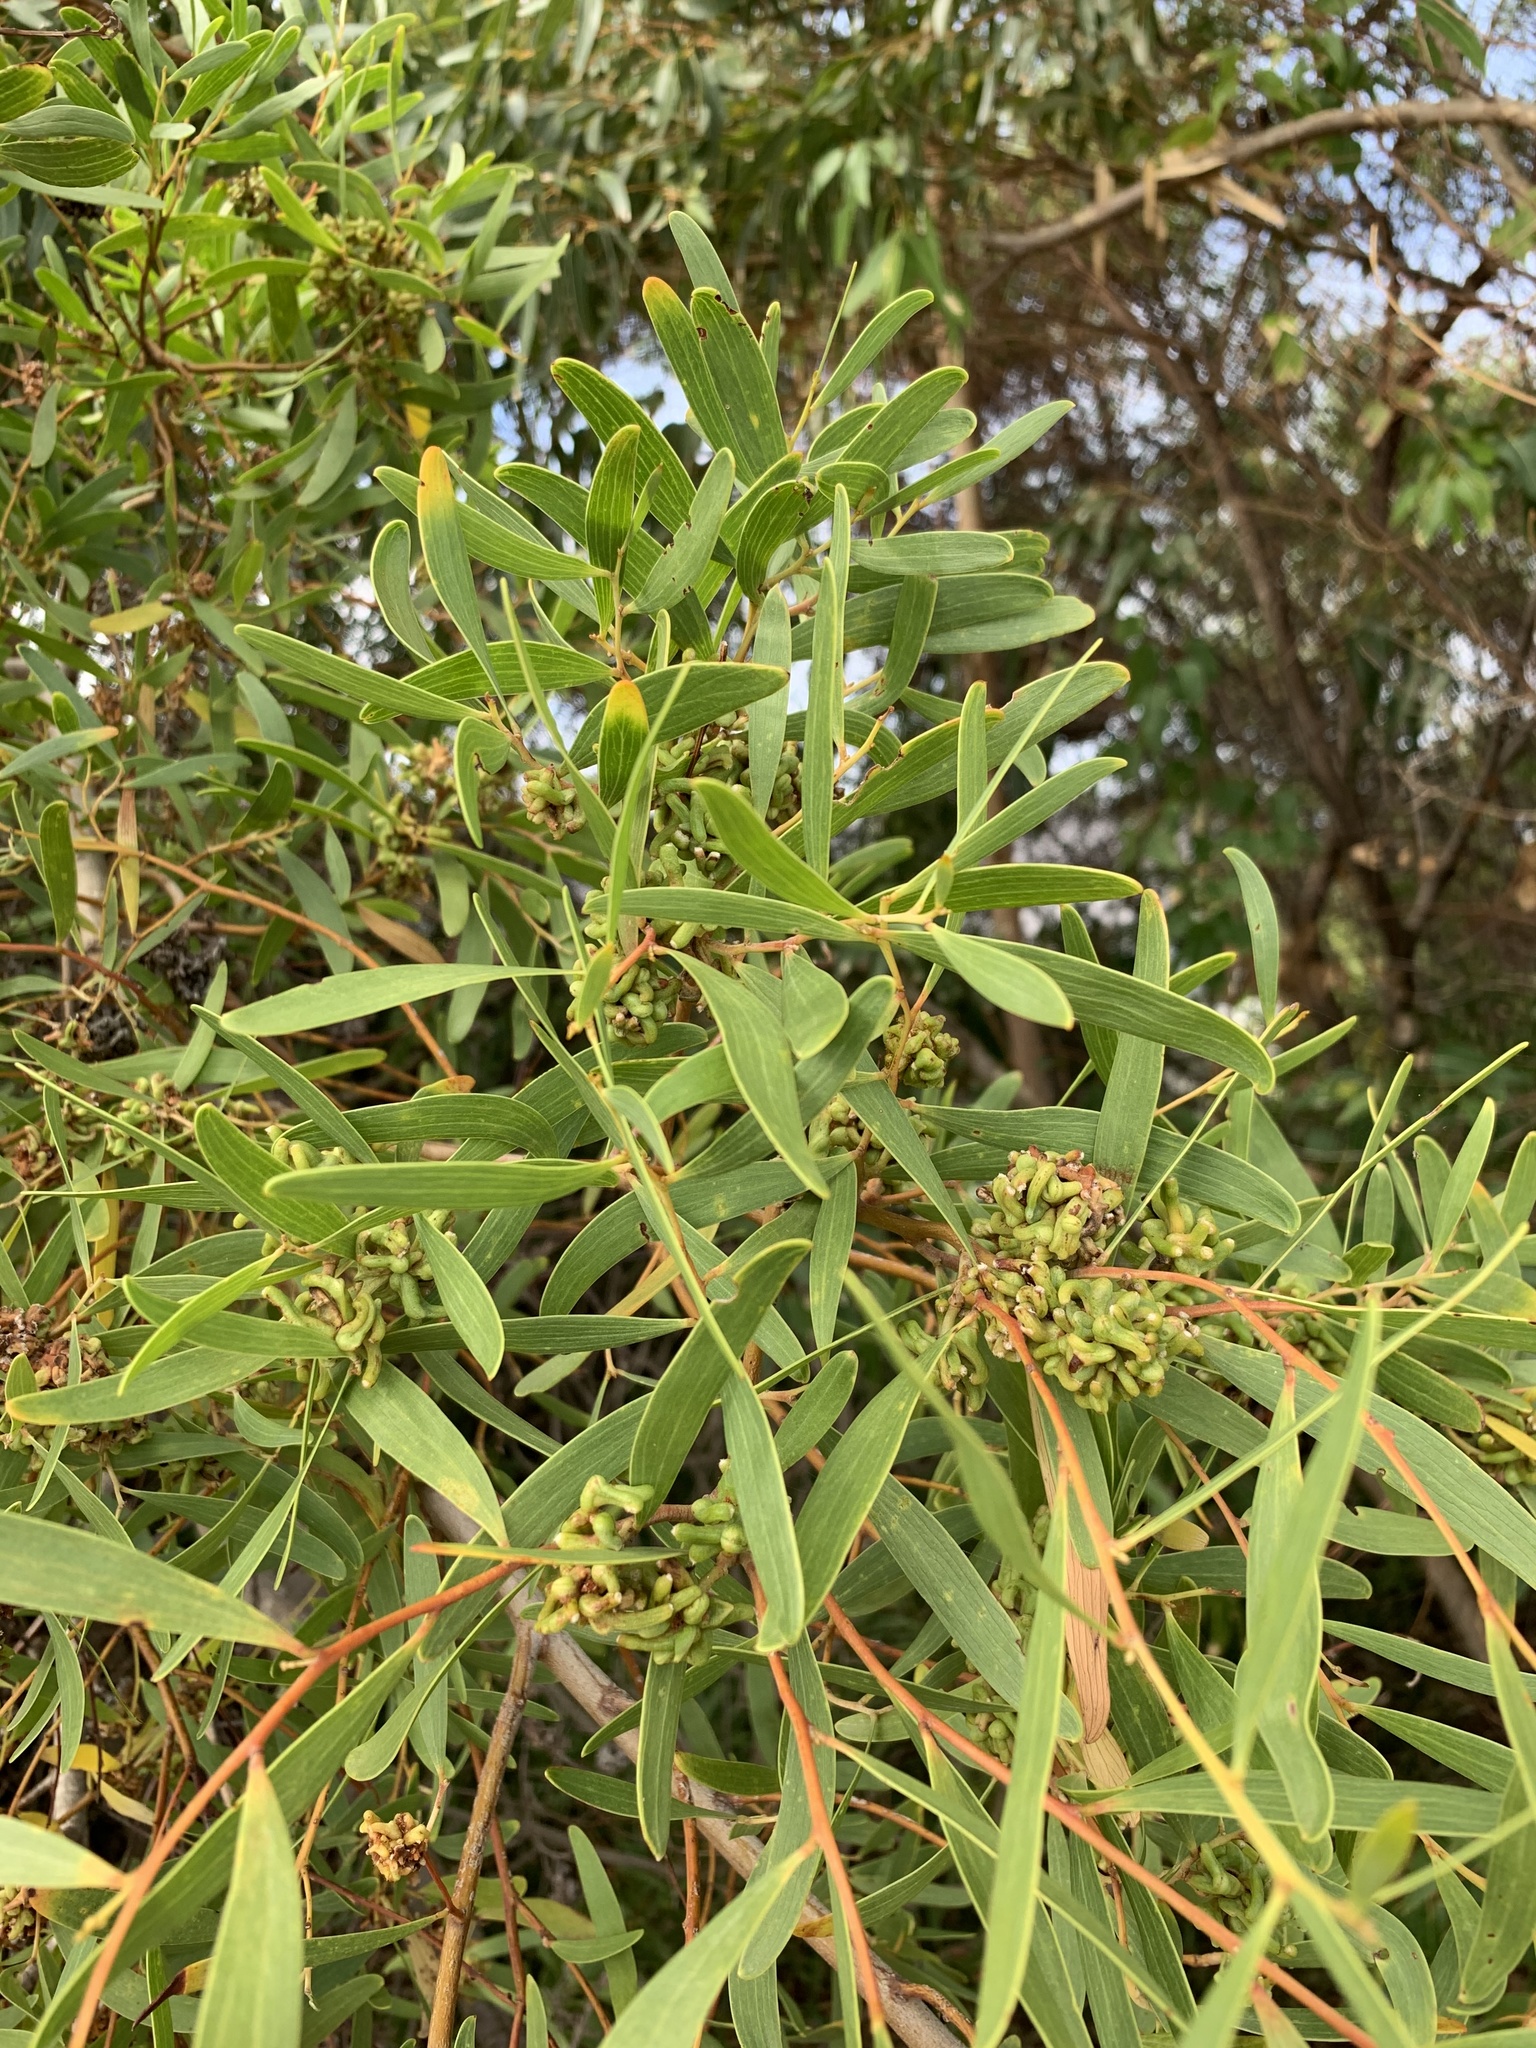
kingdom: Plantae
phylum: Tracheophyta
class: Magnoliopsida
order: Fabales
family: Fabaceae
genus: Acacia
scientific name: Acacia cyclops
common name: Coastal wattle
